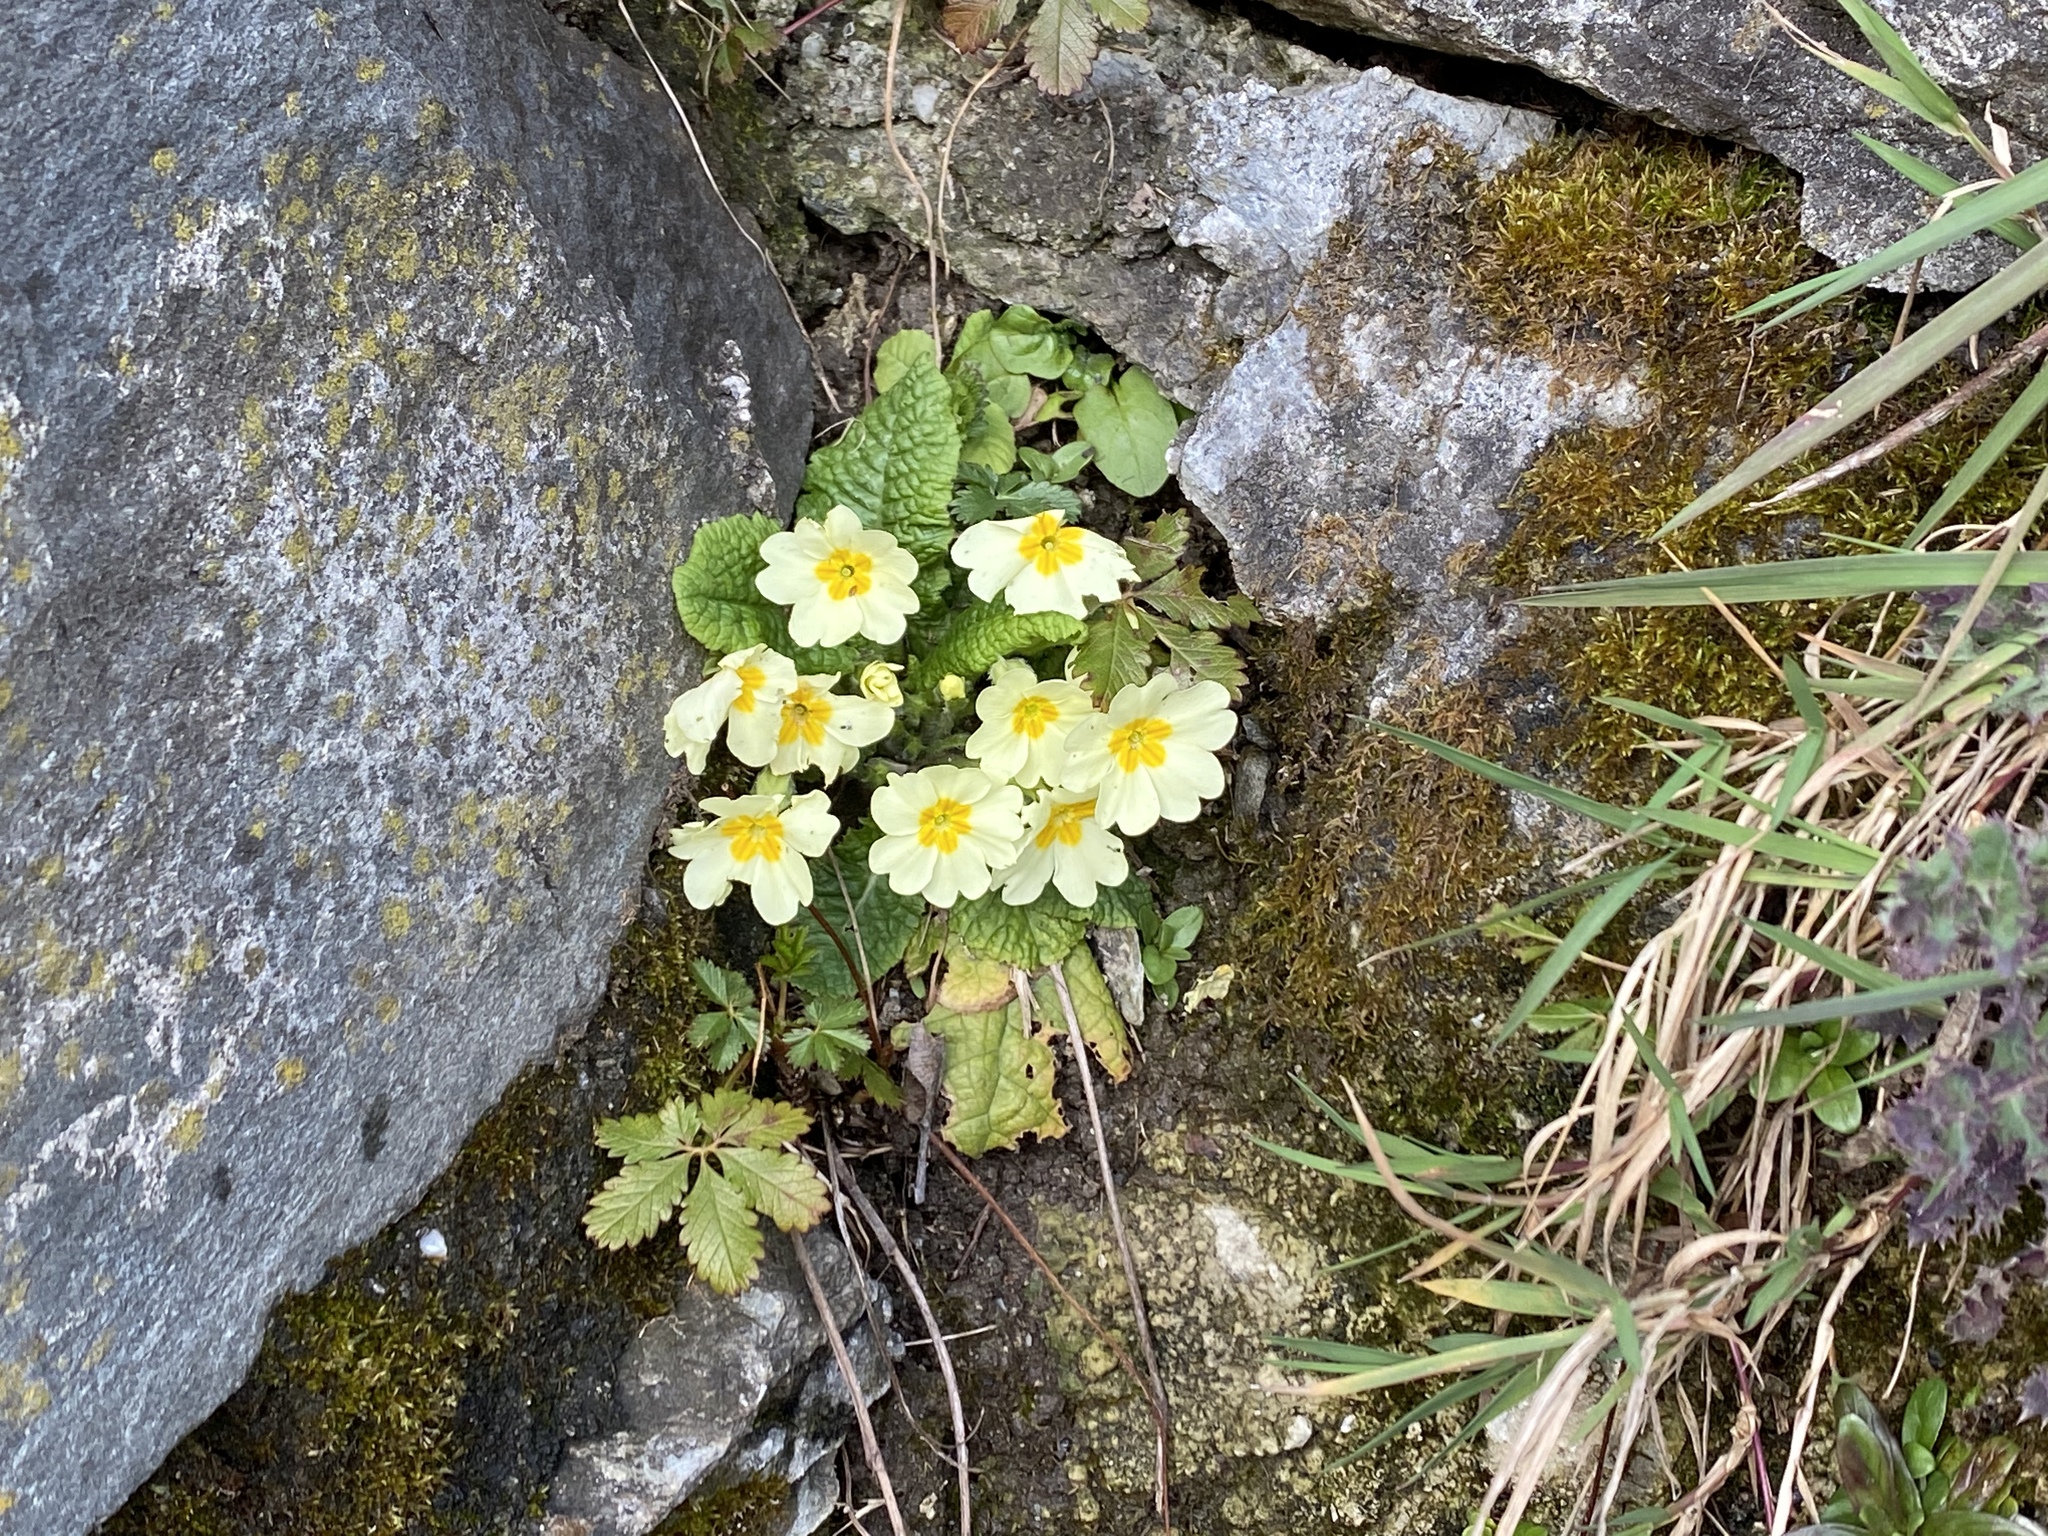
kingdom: Plantae
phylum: Tracheophyta
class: Magnoliopsida
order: Ericales
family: Primulaceae
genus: Primula
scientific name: Primula vulgaris
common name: Primrose
